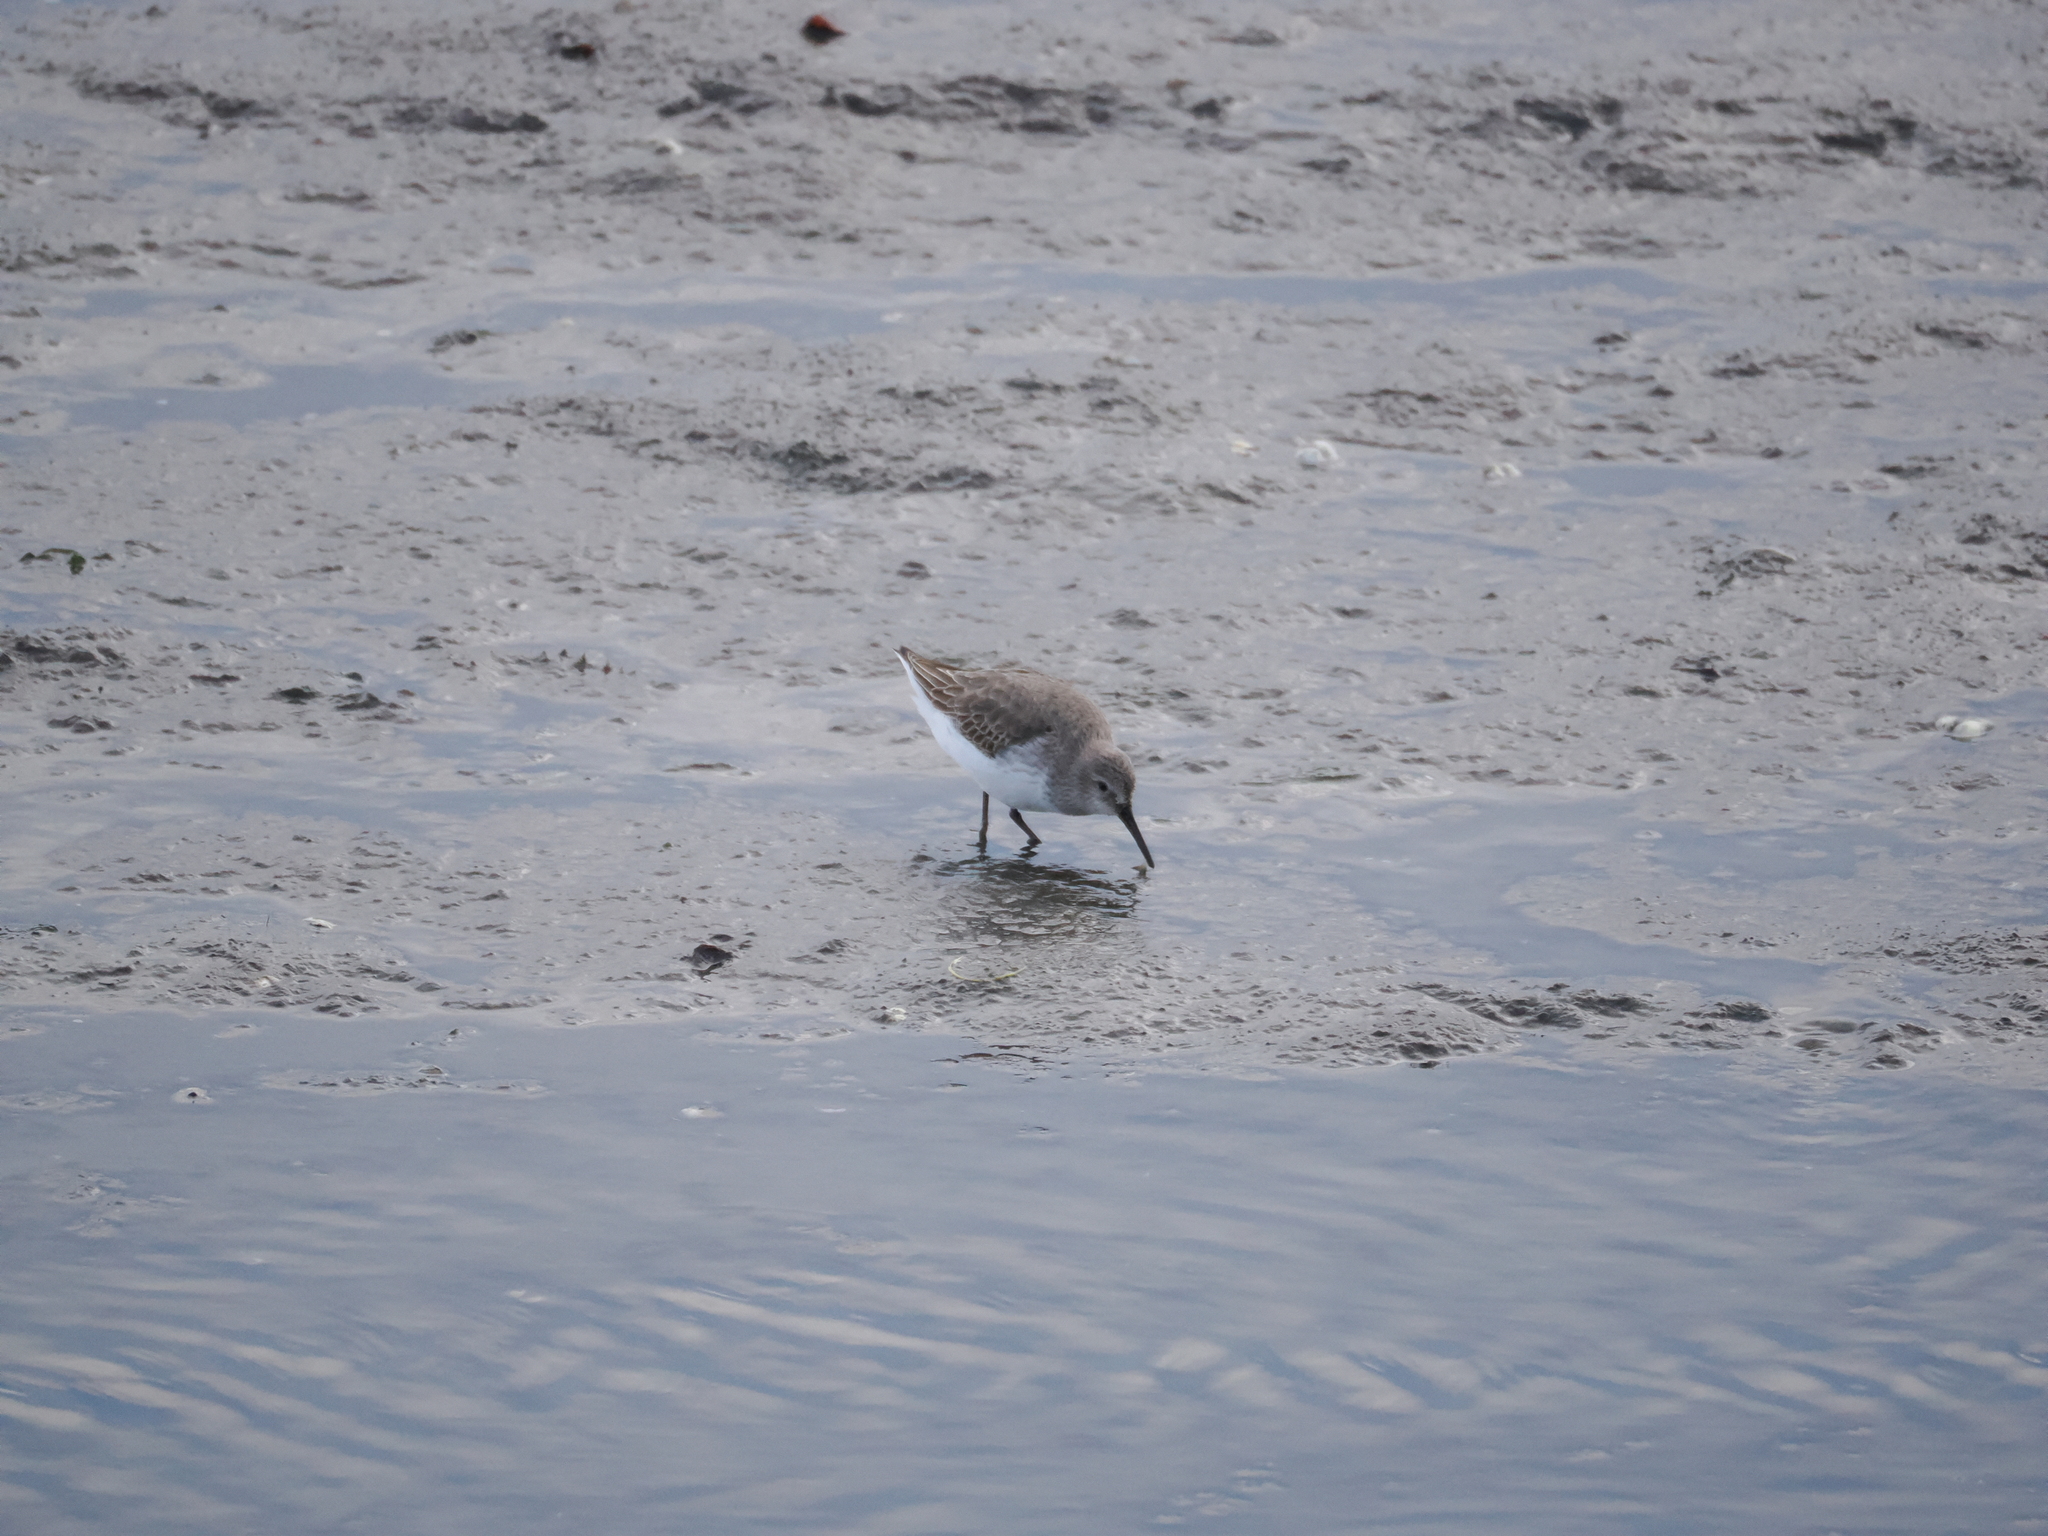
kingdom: Animalia
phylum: Chordata
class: Aves
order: Charadriiformes
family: Scolopacidae
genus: Calidris
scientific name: Calidris alpina
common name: Dunlin
